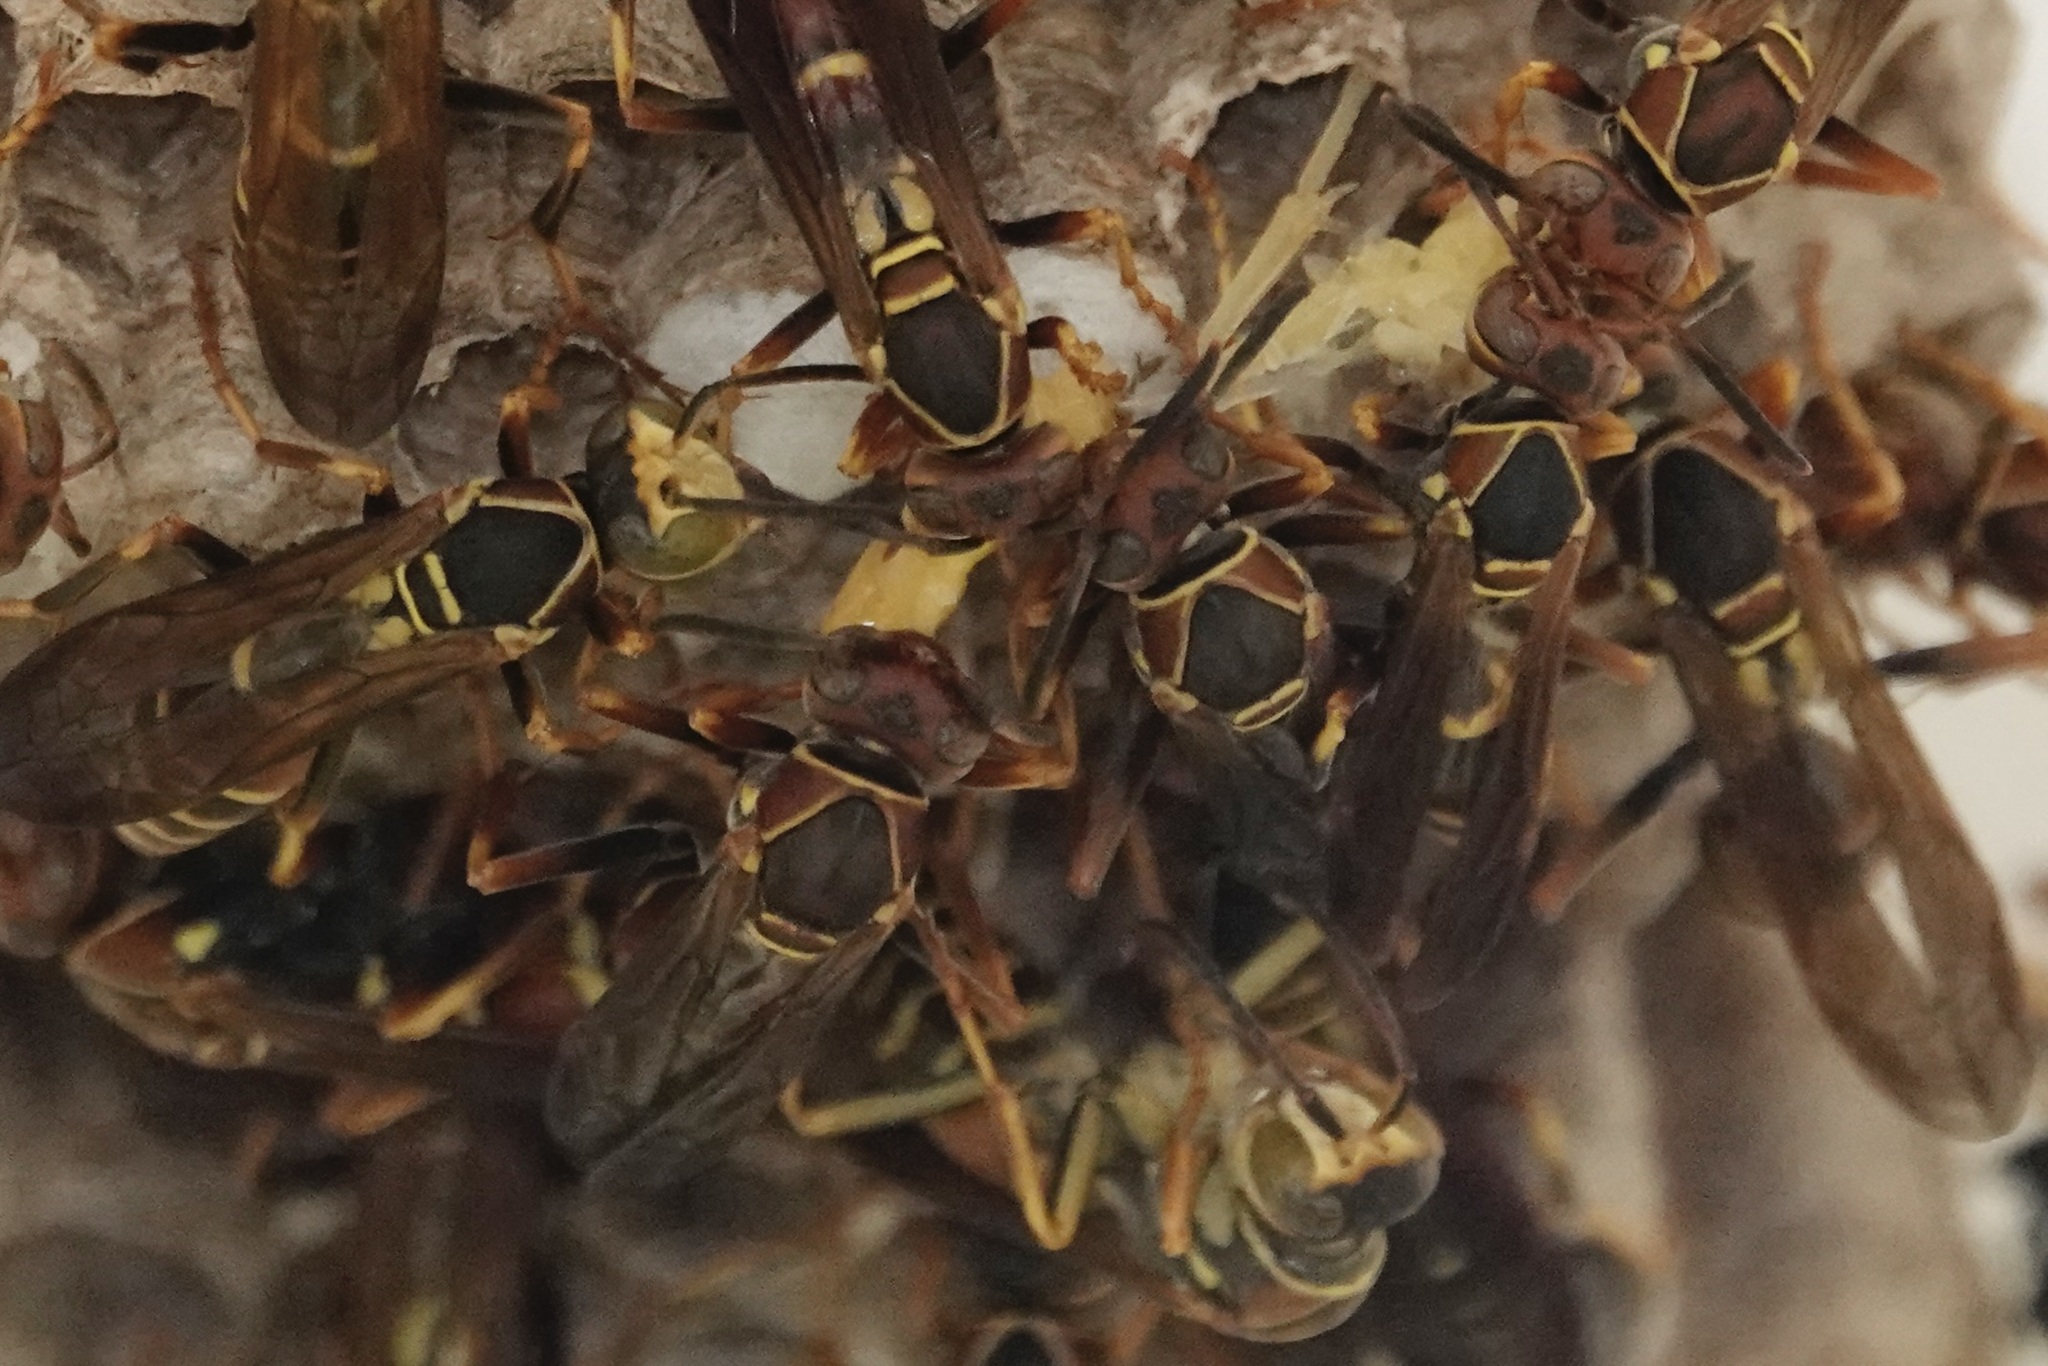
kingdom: Animalia
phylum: Arthropoda
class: Insecta
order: Hymenoptera
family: Eumenidae
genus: Polistes
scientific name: Polistes dorsalis
